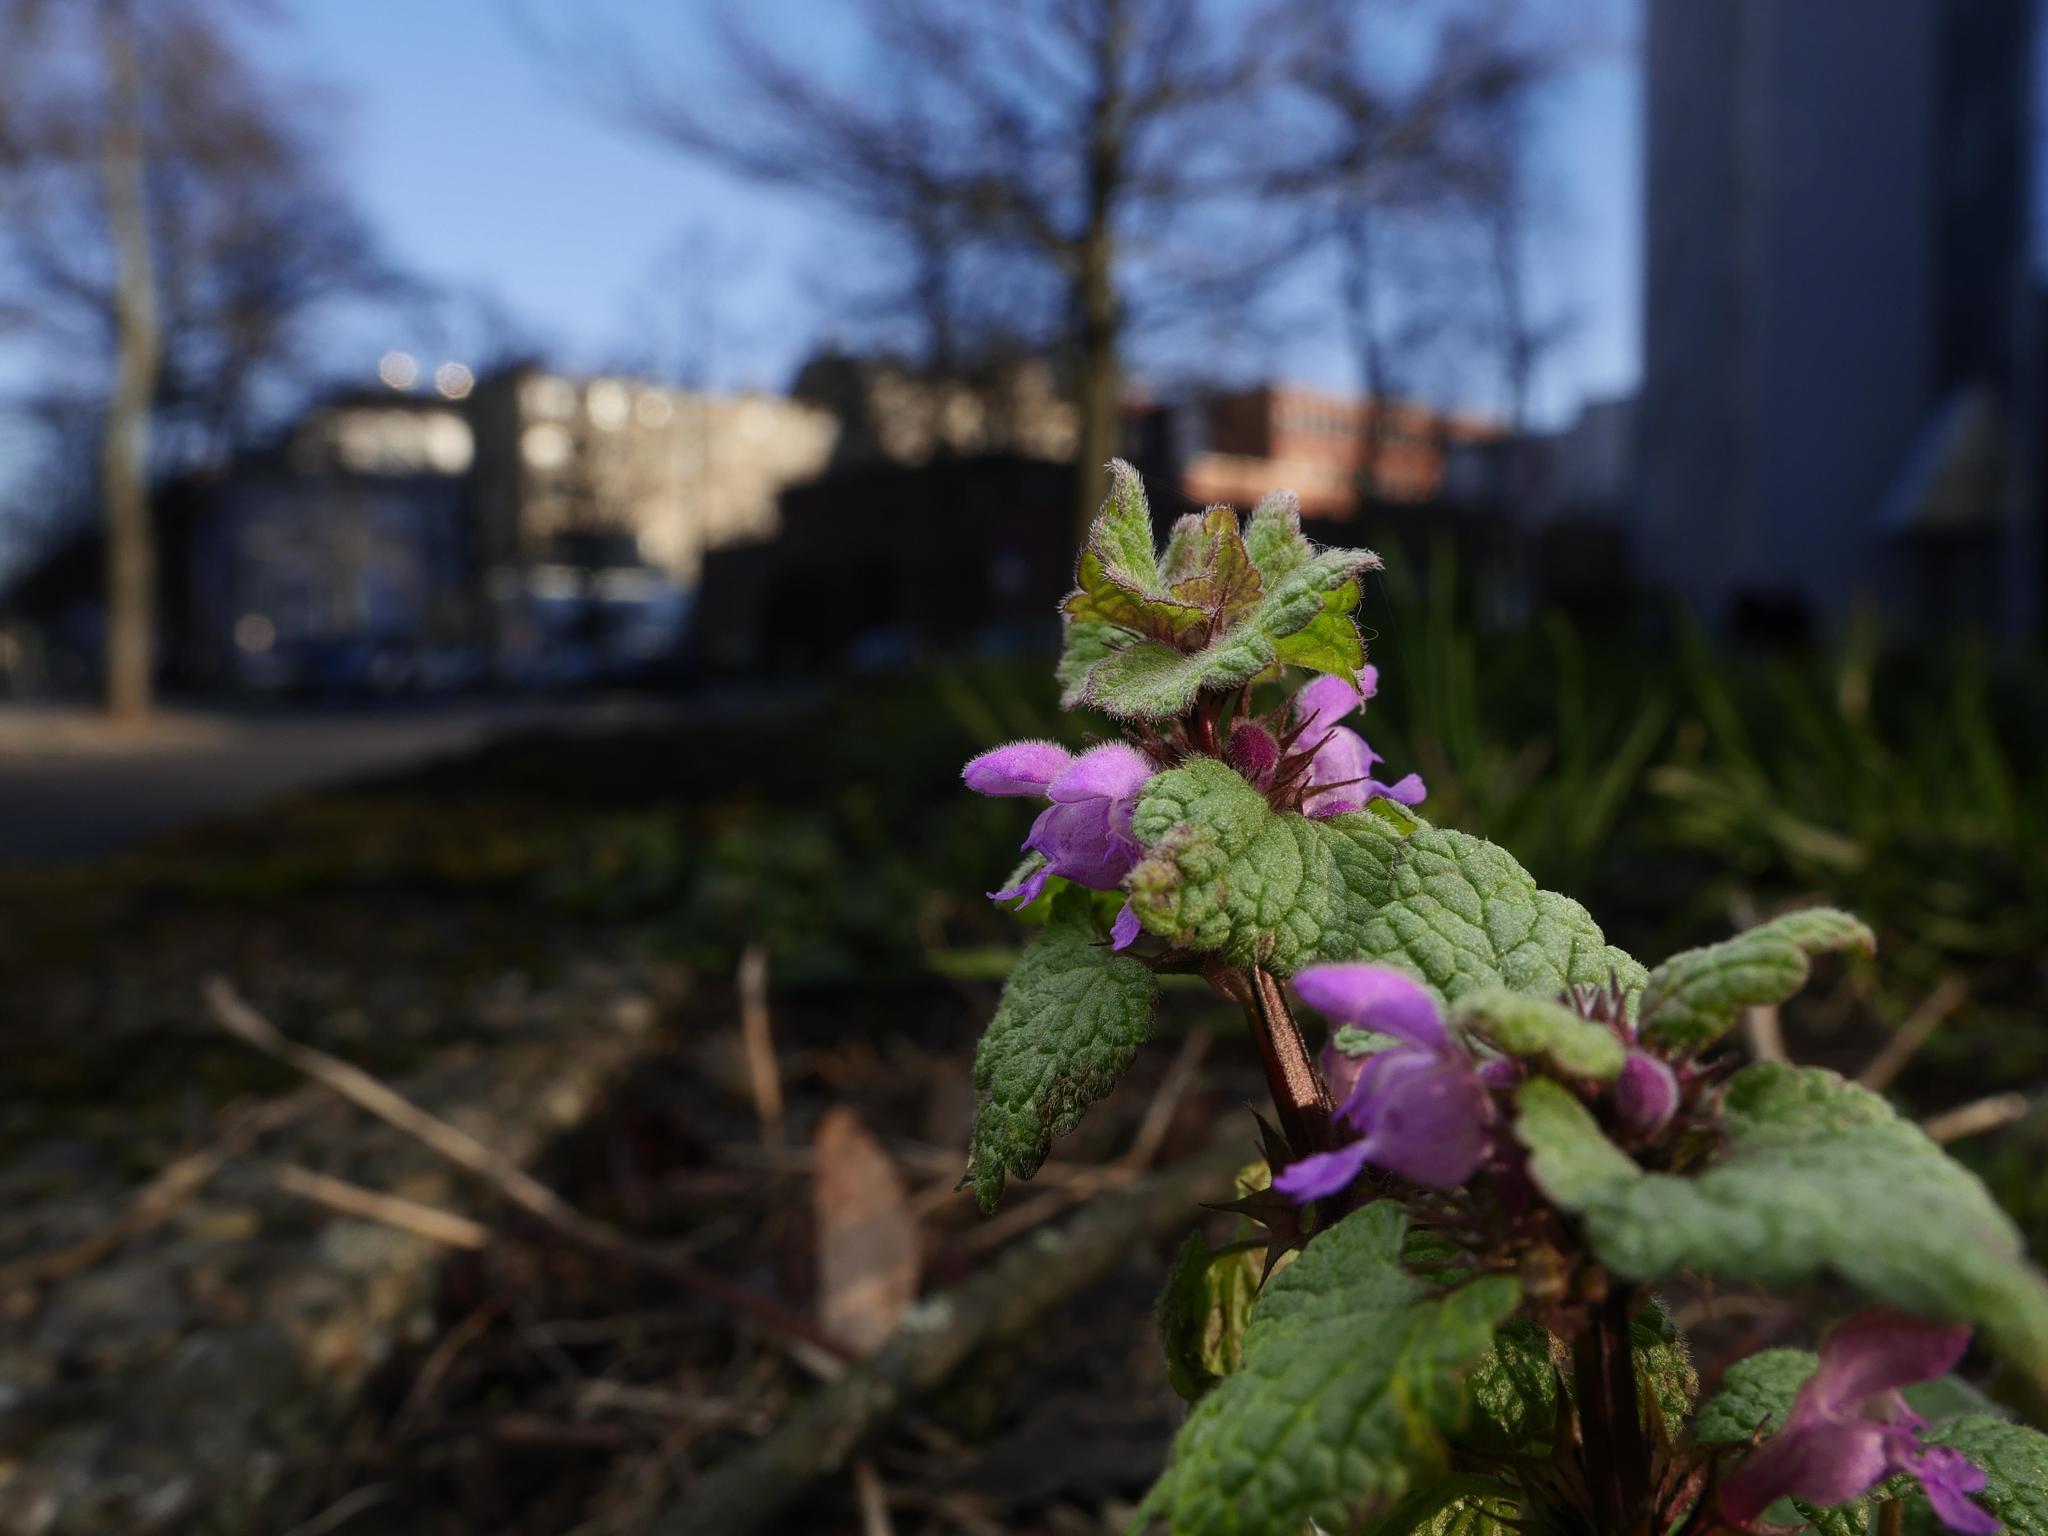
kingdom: Plantae
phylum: Tracheophyta
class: Magnoliopsida
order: Lamiales
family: Lamiaceae
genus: Lamium
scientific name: Lamium purpureum
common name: Red dead-nettle
